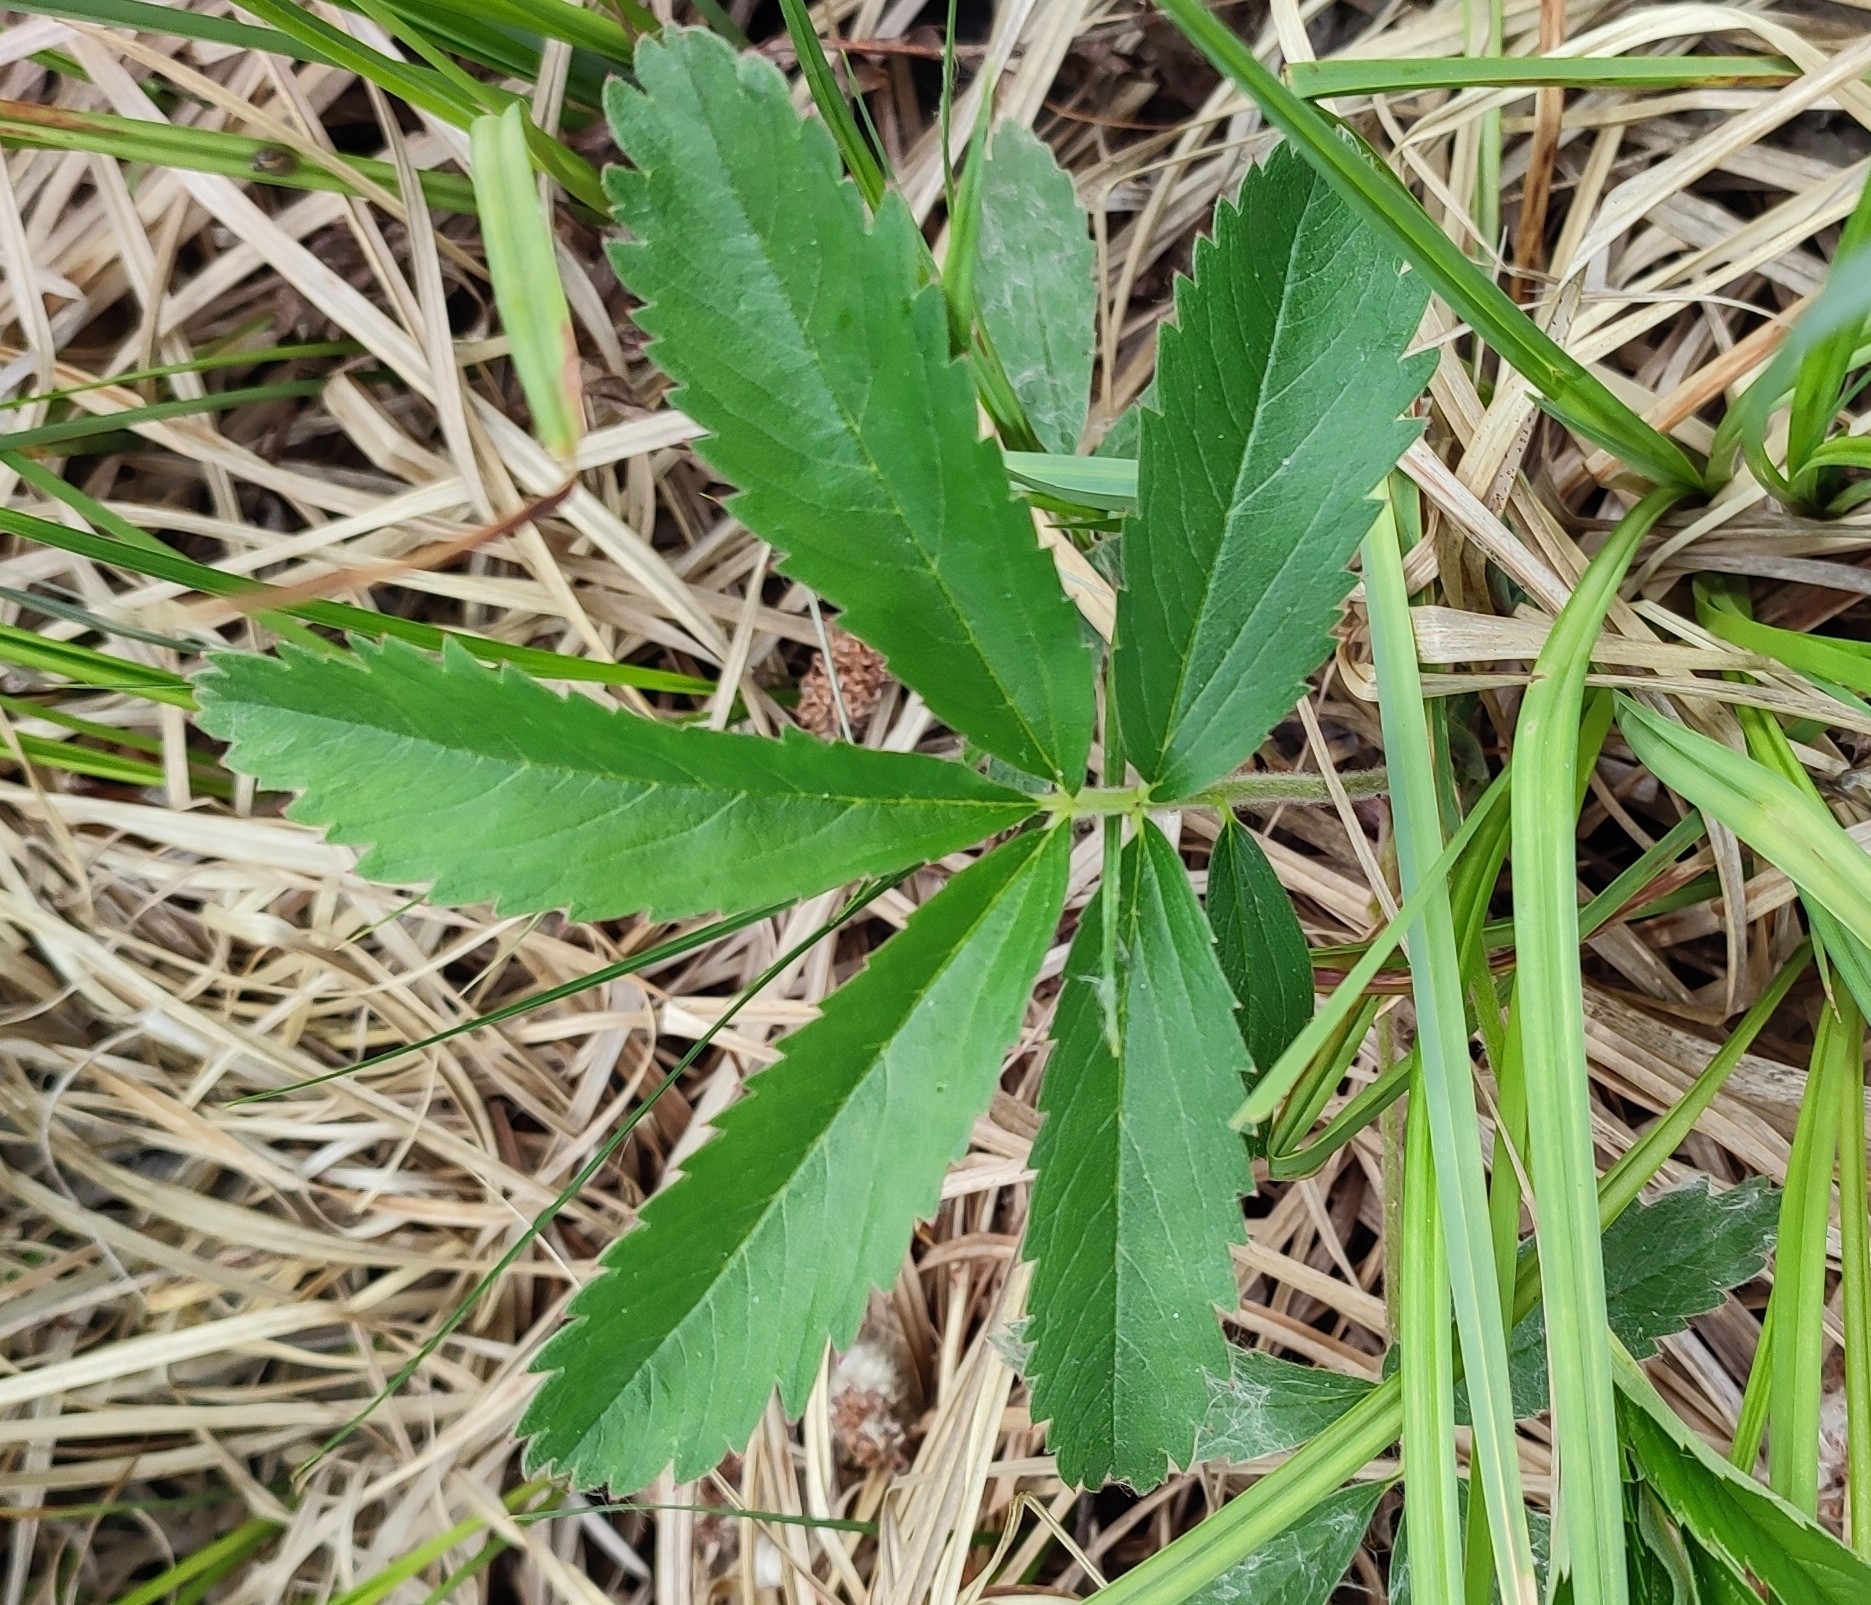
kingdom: Plantae
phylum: Tracheophyta
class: Magnoliopsida
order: Rosales
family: Rosaceae
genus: Comarum
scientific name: Comarum palustre
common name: Marsh cinquefoil
